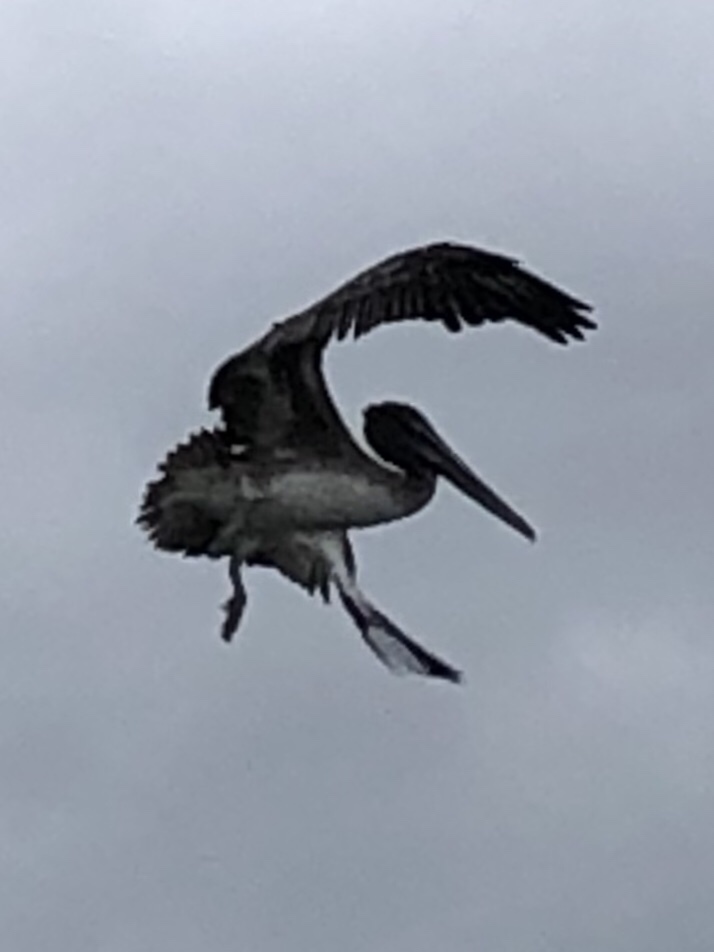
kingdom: Animalia
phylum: Chordata
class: Aves
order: Pelecaniformes
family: Pelecanidae
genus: Pelecanus
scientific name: Pelecanus occidentalis
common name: Brown pelican
